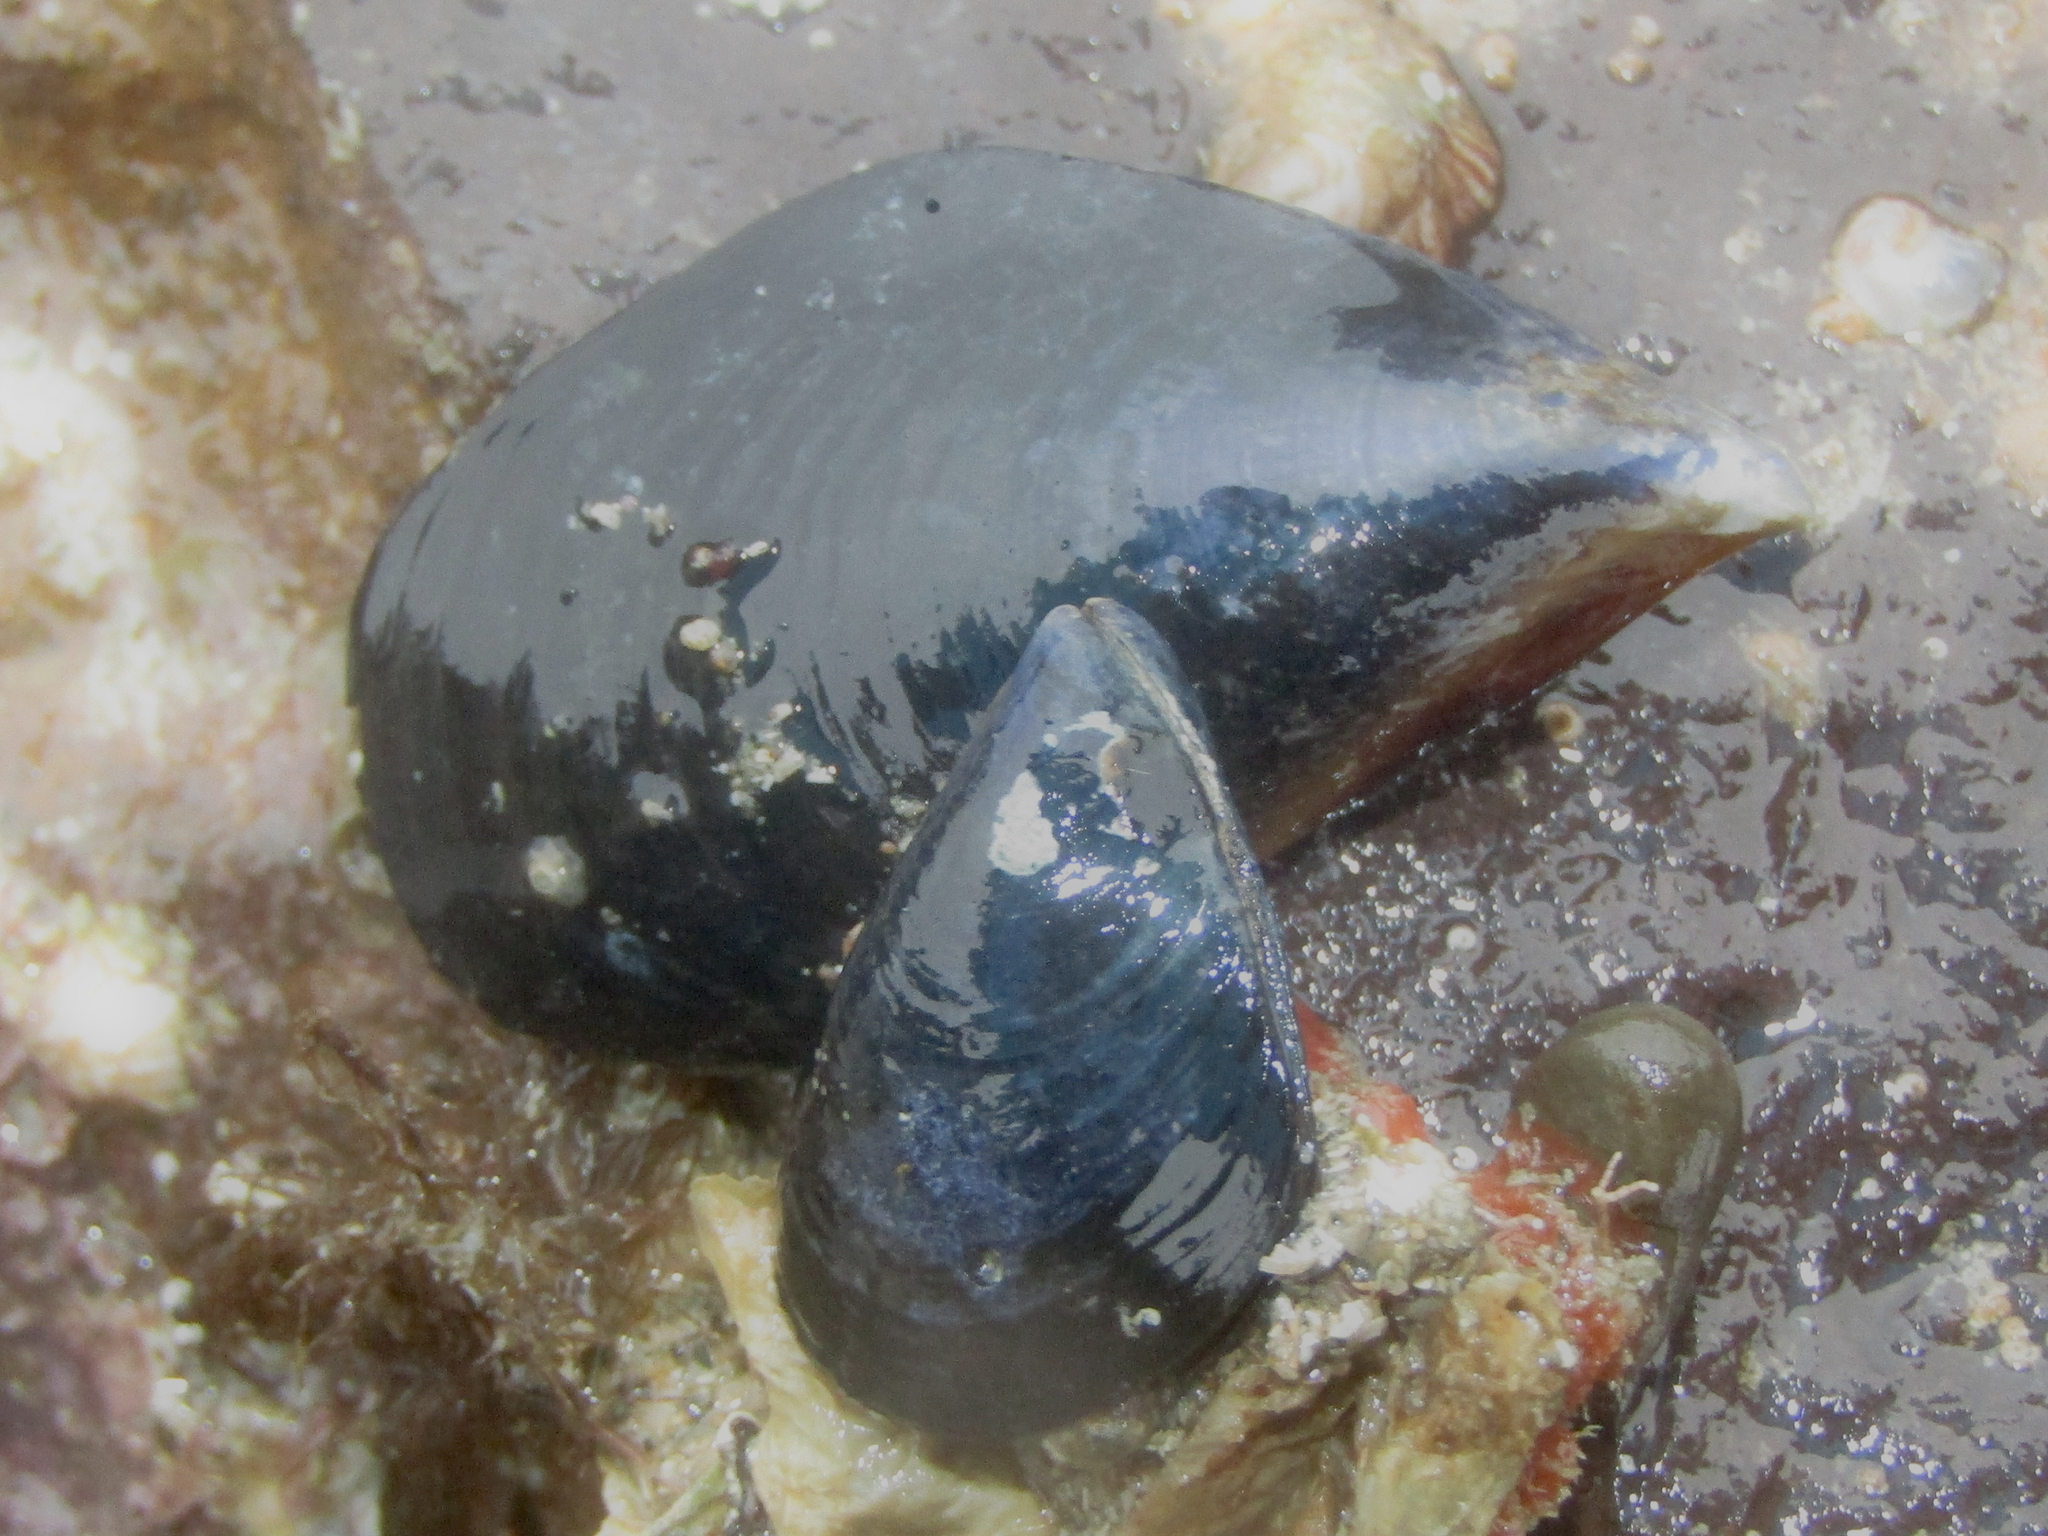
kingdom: Animalia
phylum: Mollusca
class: Bivalvia
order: Mytilida
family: Mytilidae
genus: Mytilus
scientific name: Mytilus planulatus
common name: Australian mussel
